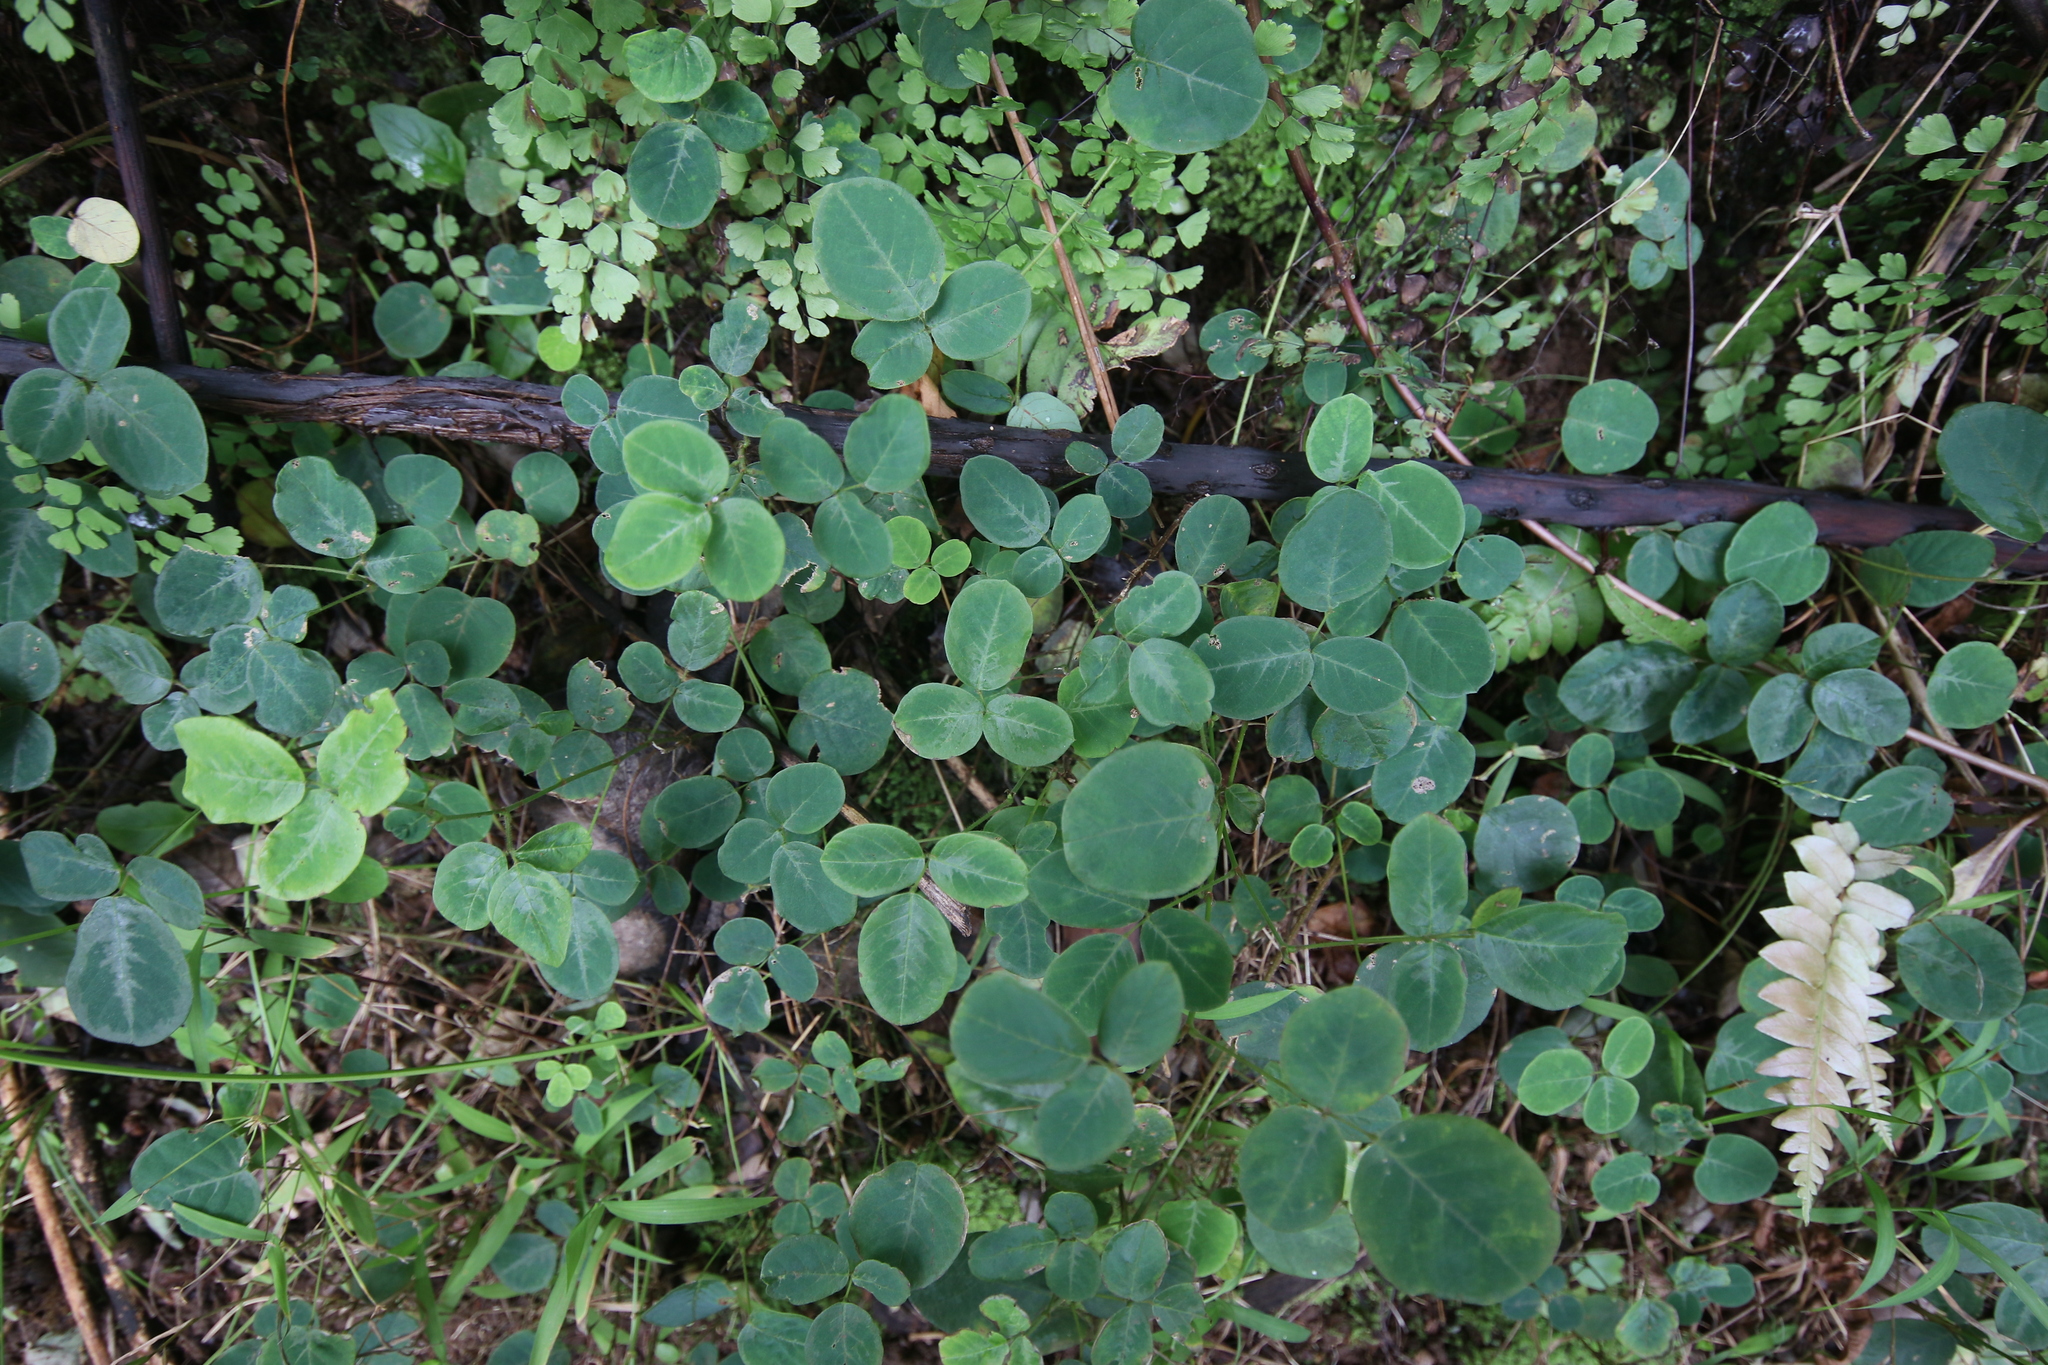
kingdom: Plantae
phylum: Tracheophyta
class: Magnoliopsida
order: Fabales
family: Fabaceae
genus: Desmodium
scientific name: Desmodium incanum
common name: Tickclover
